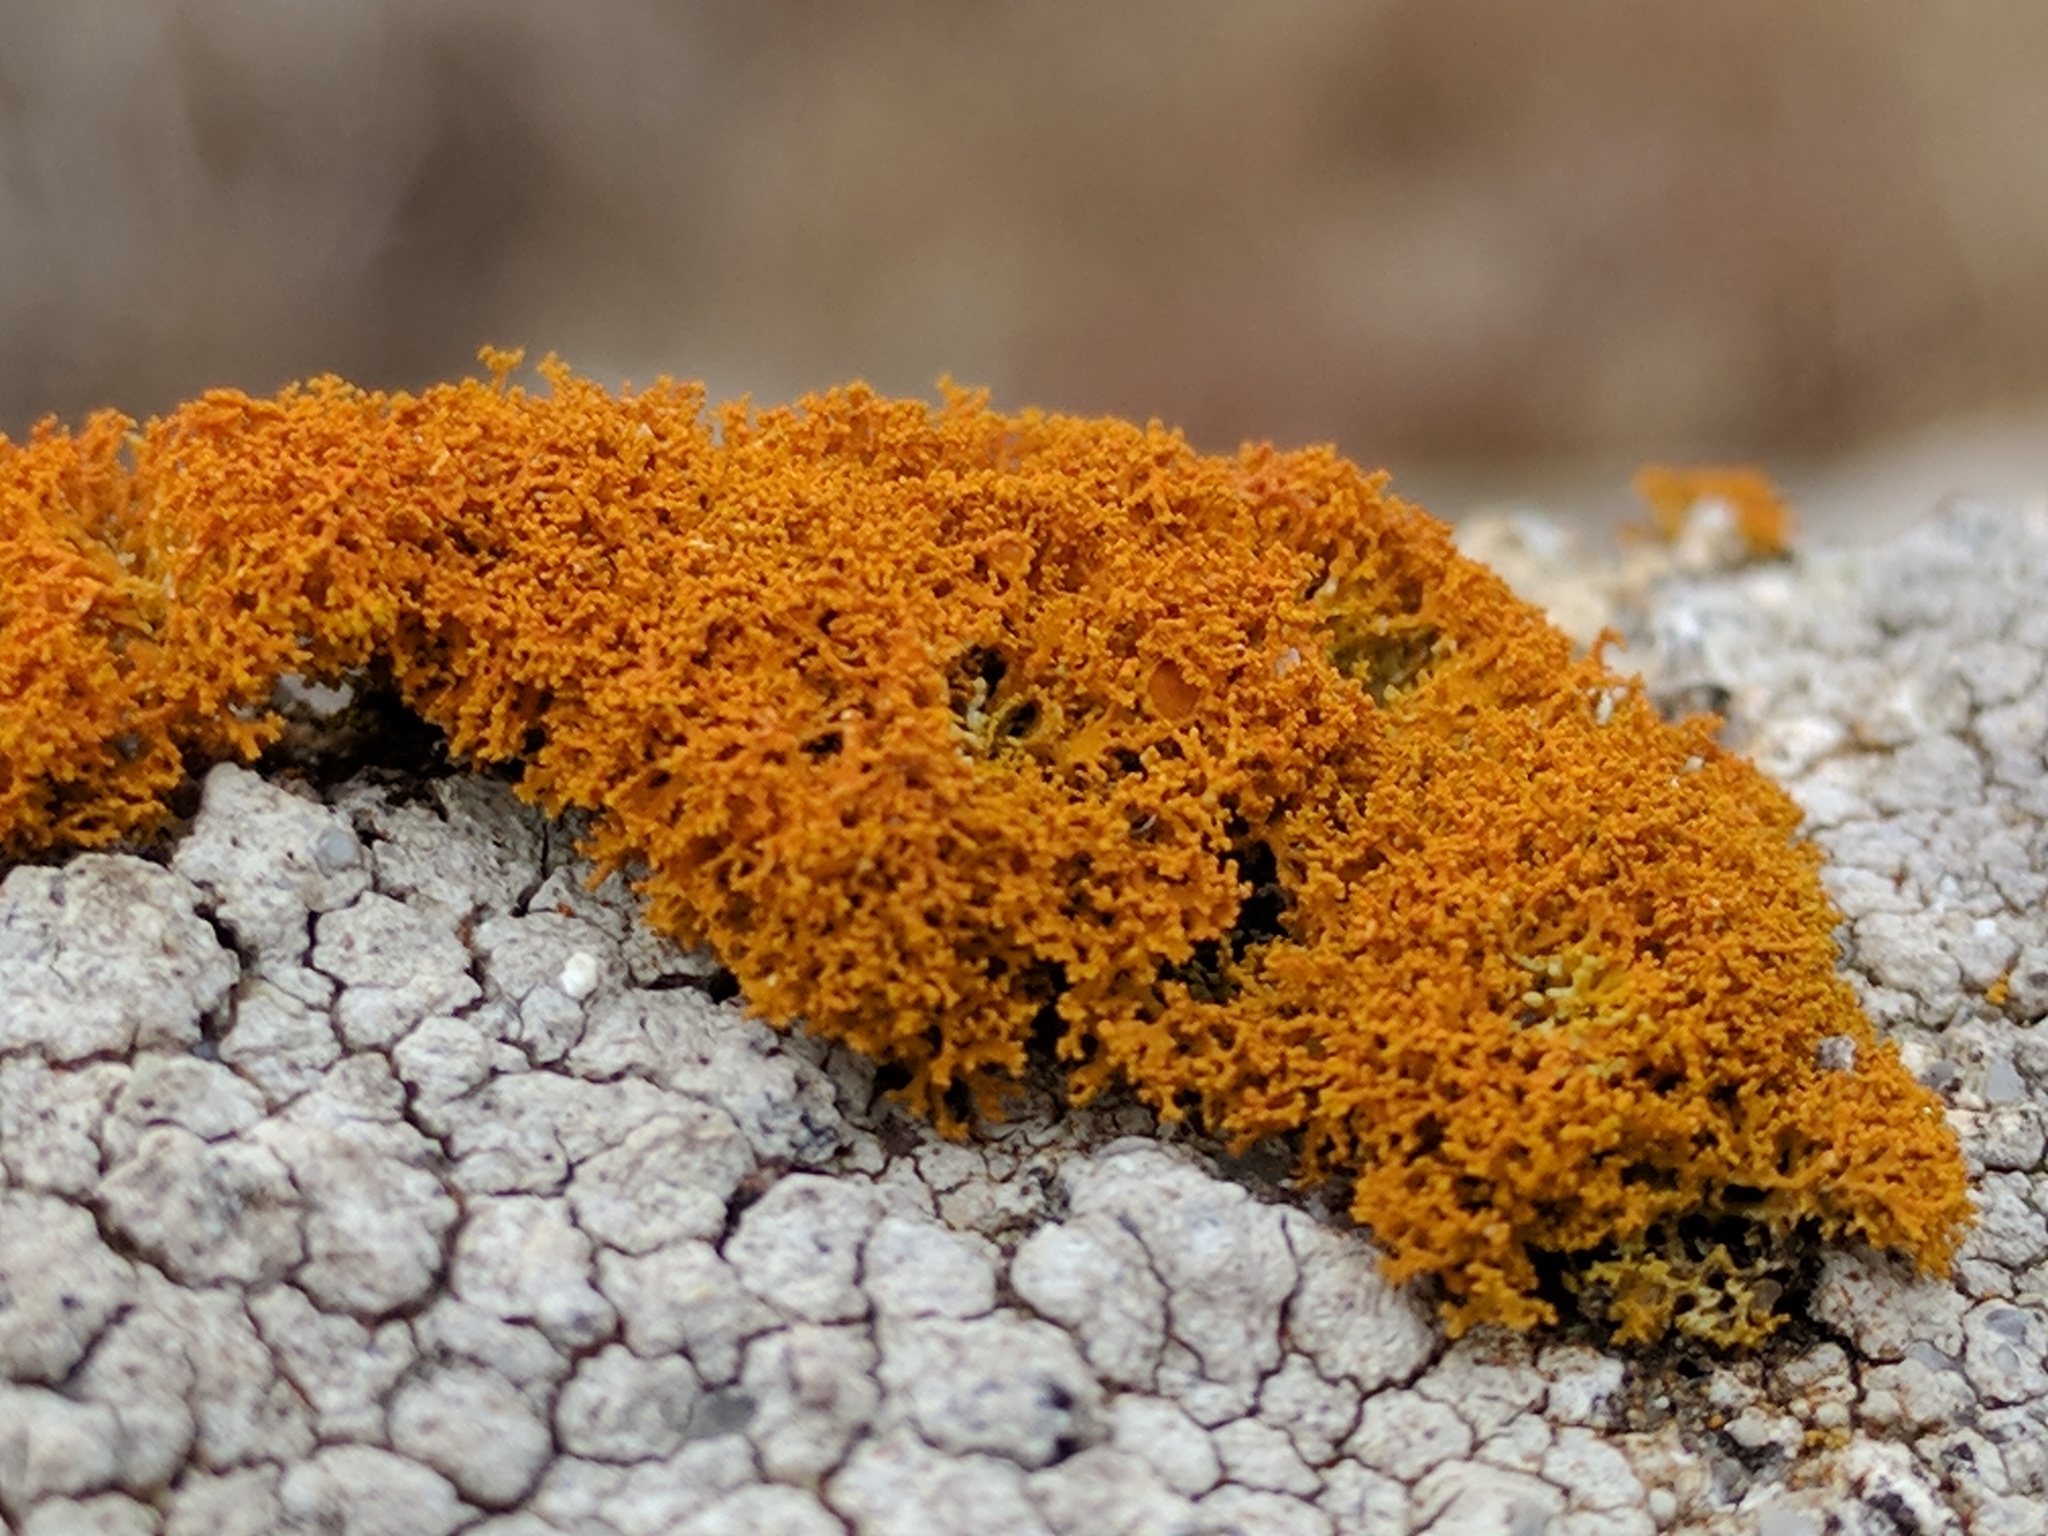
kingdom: Fungi
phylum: Ascomycota
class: Lecanoromycetes
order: Teloschistales
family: Teloschistaceae
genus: Polycauliona
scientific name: Polycauliona candelaria
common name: Shrubby sunburst lichen
